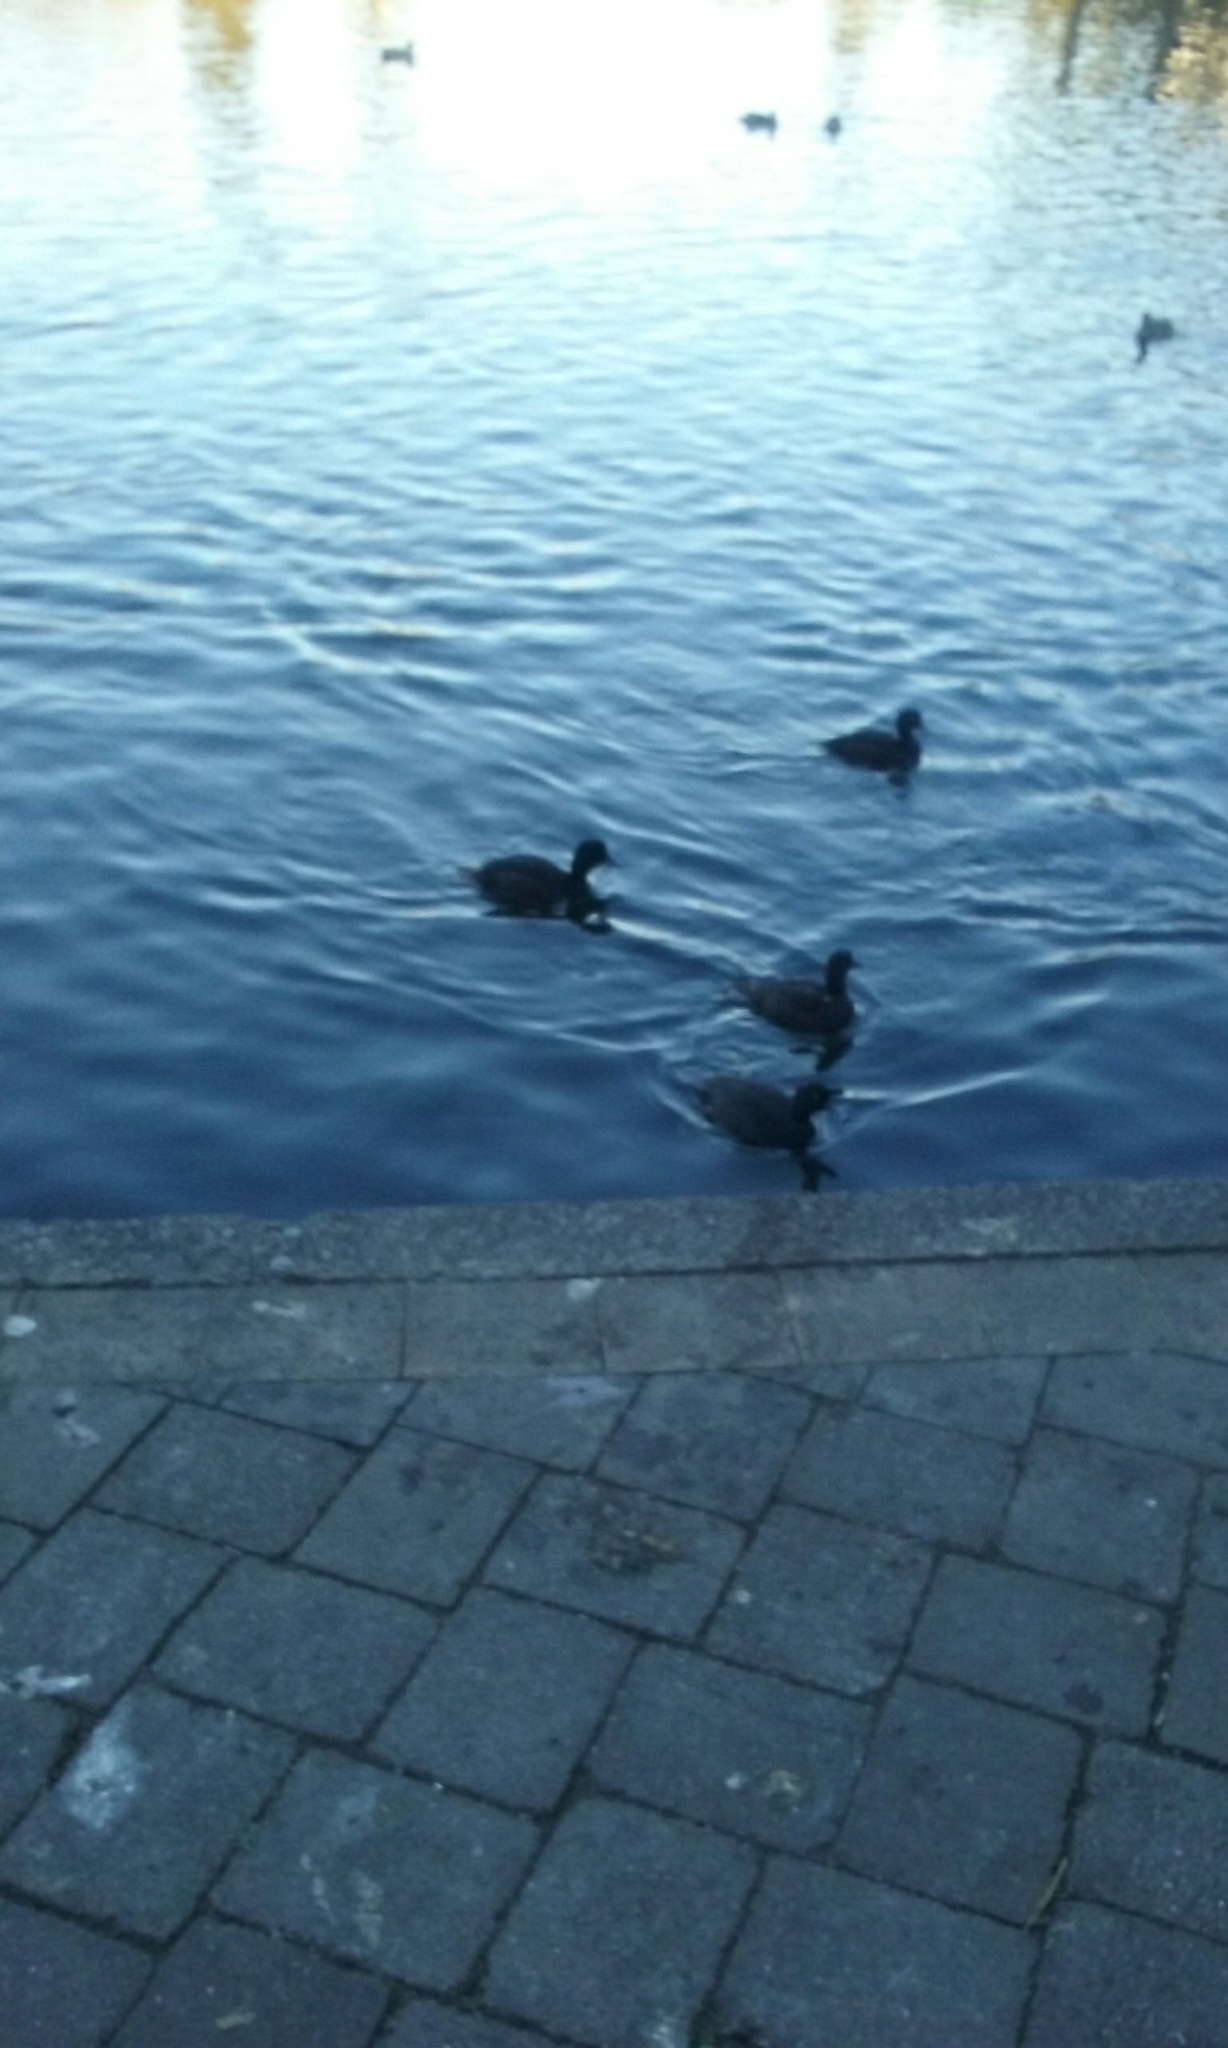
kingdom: Animalia
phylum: Chordata
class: Aves
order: Anseriformes
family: Anatidae
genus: Aythya
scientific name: Aythya novaeseelandiae
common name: New zealand scaup
